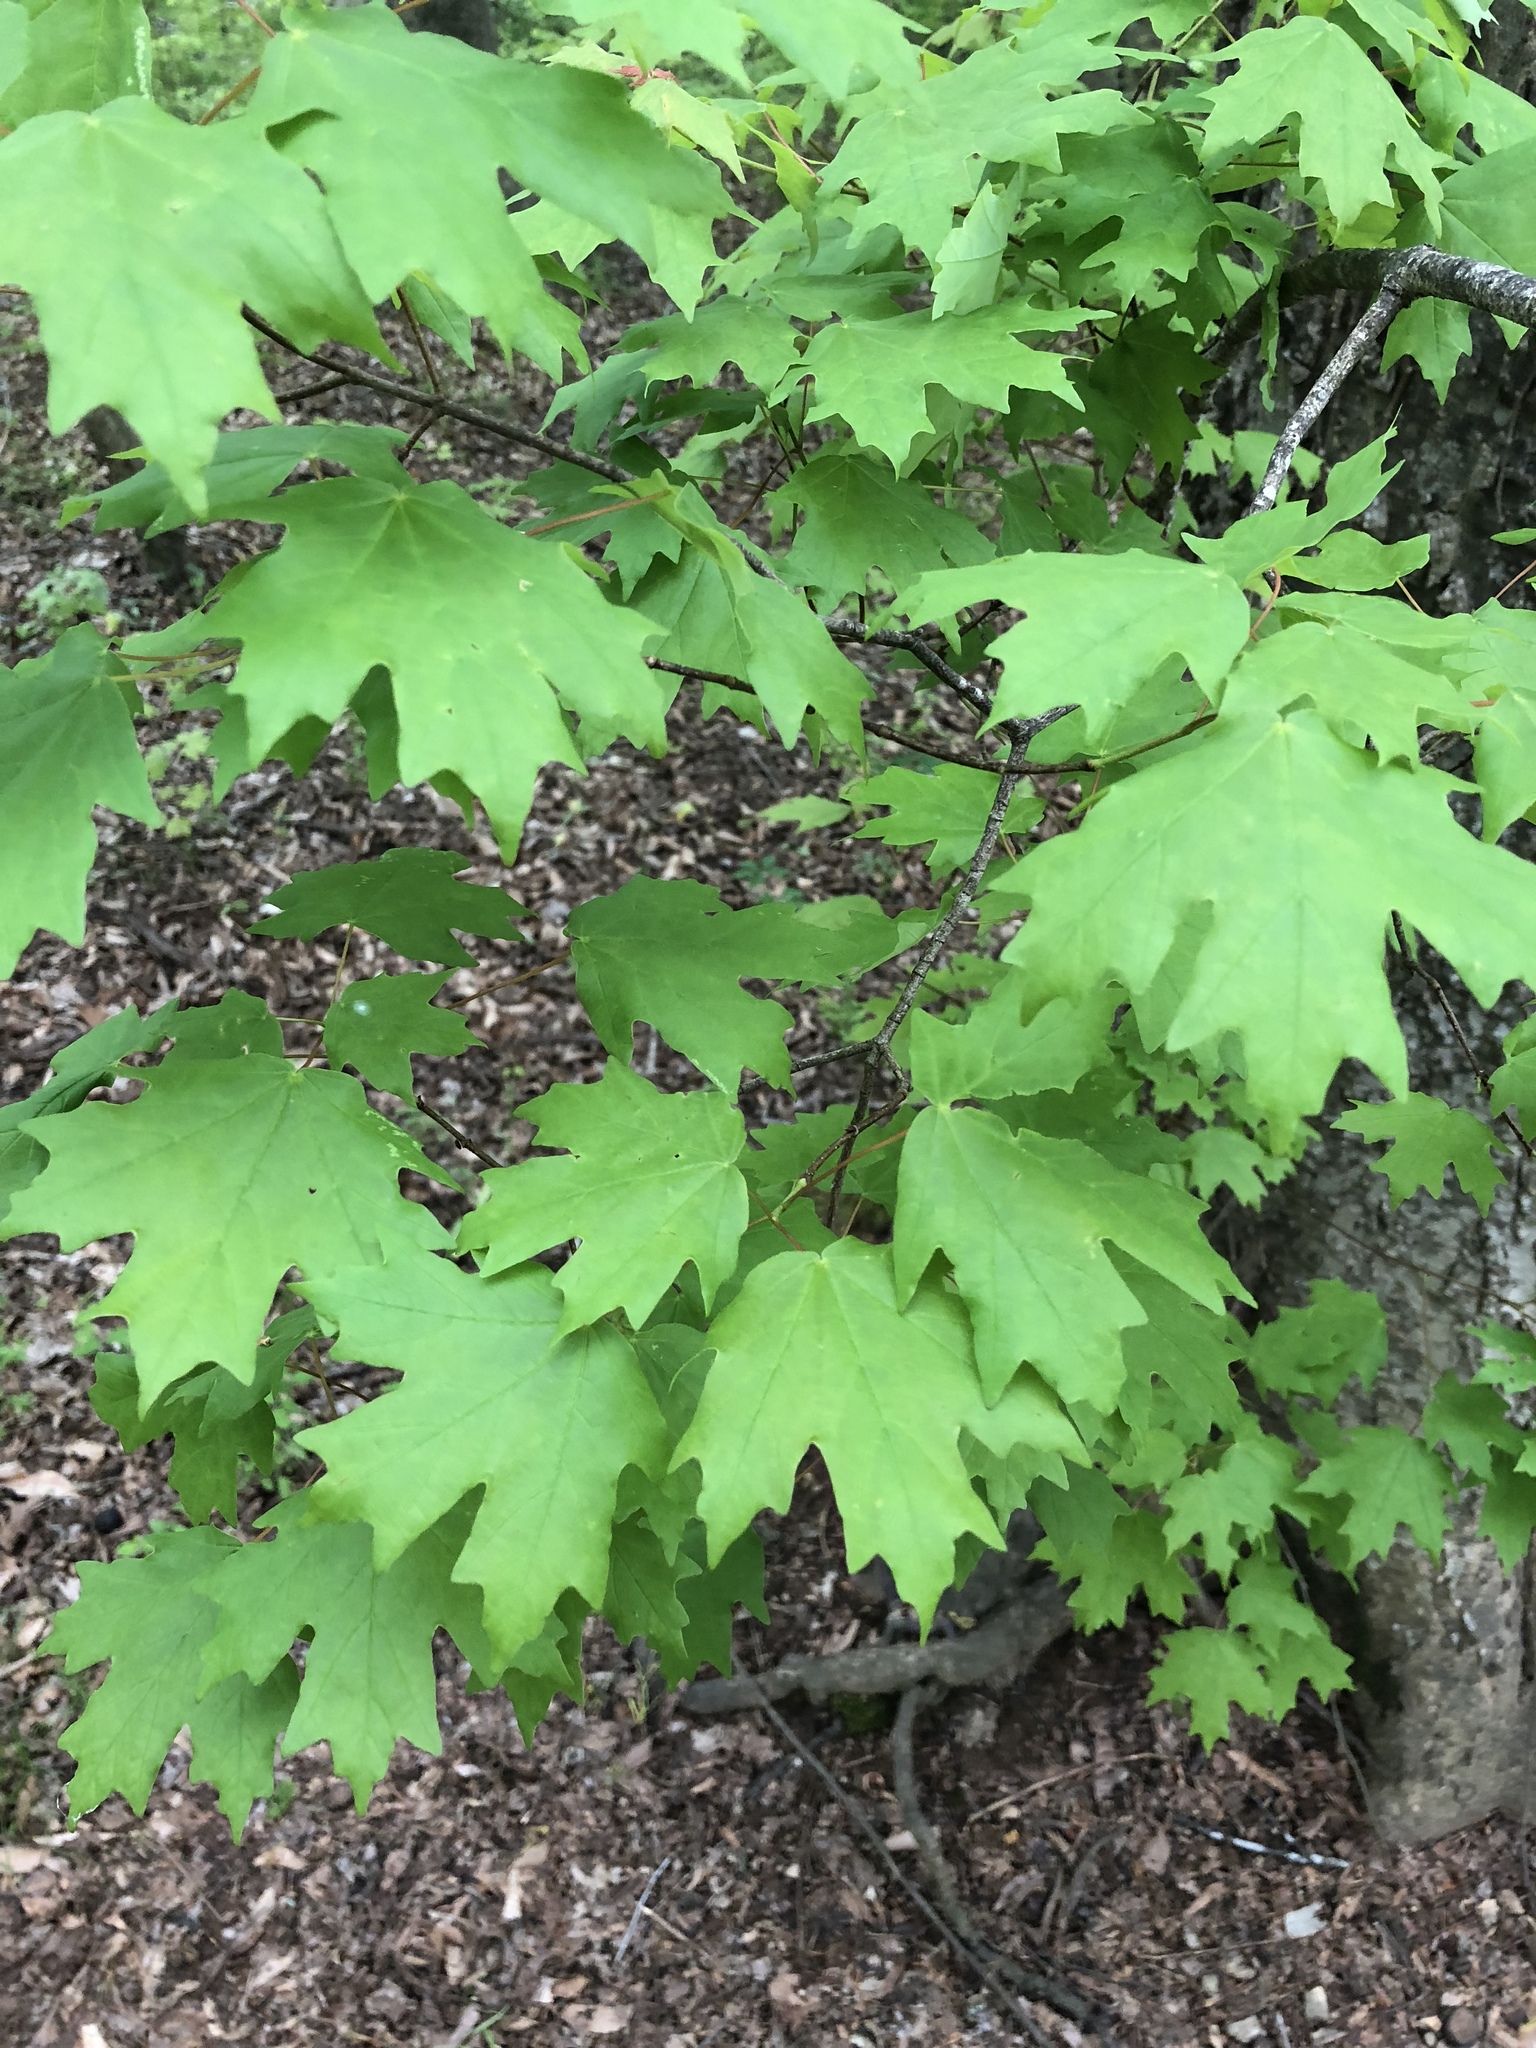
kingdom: Plantae
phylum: Tracheophyta
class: Magnoliopsida
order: Sapindales
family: Sapindaceae
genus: Acer
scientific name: Acer floridanum
